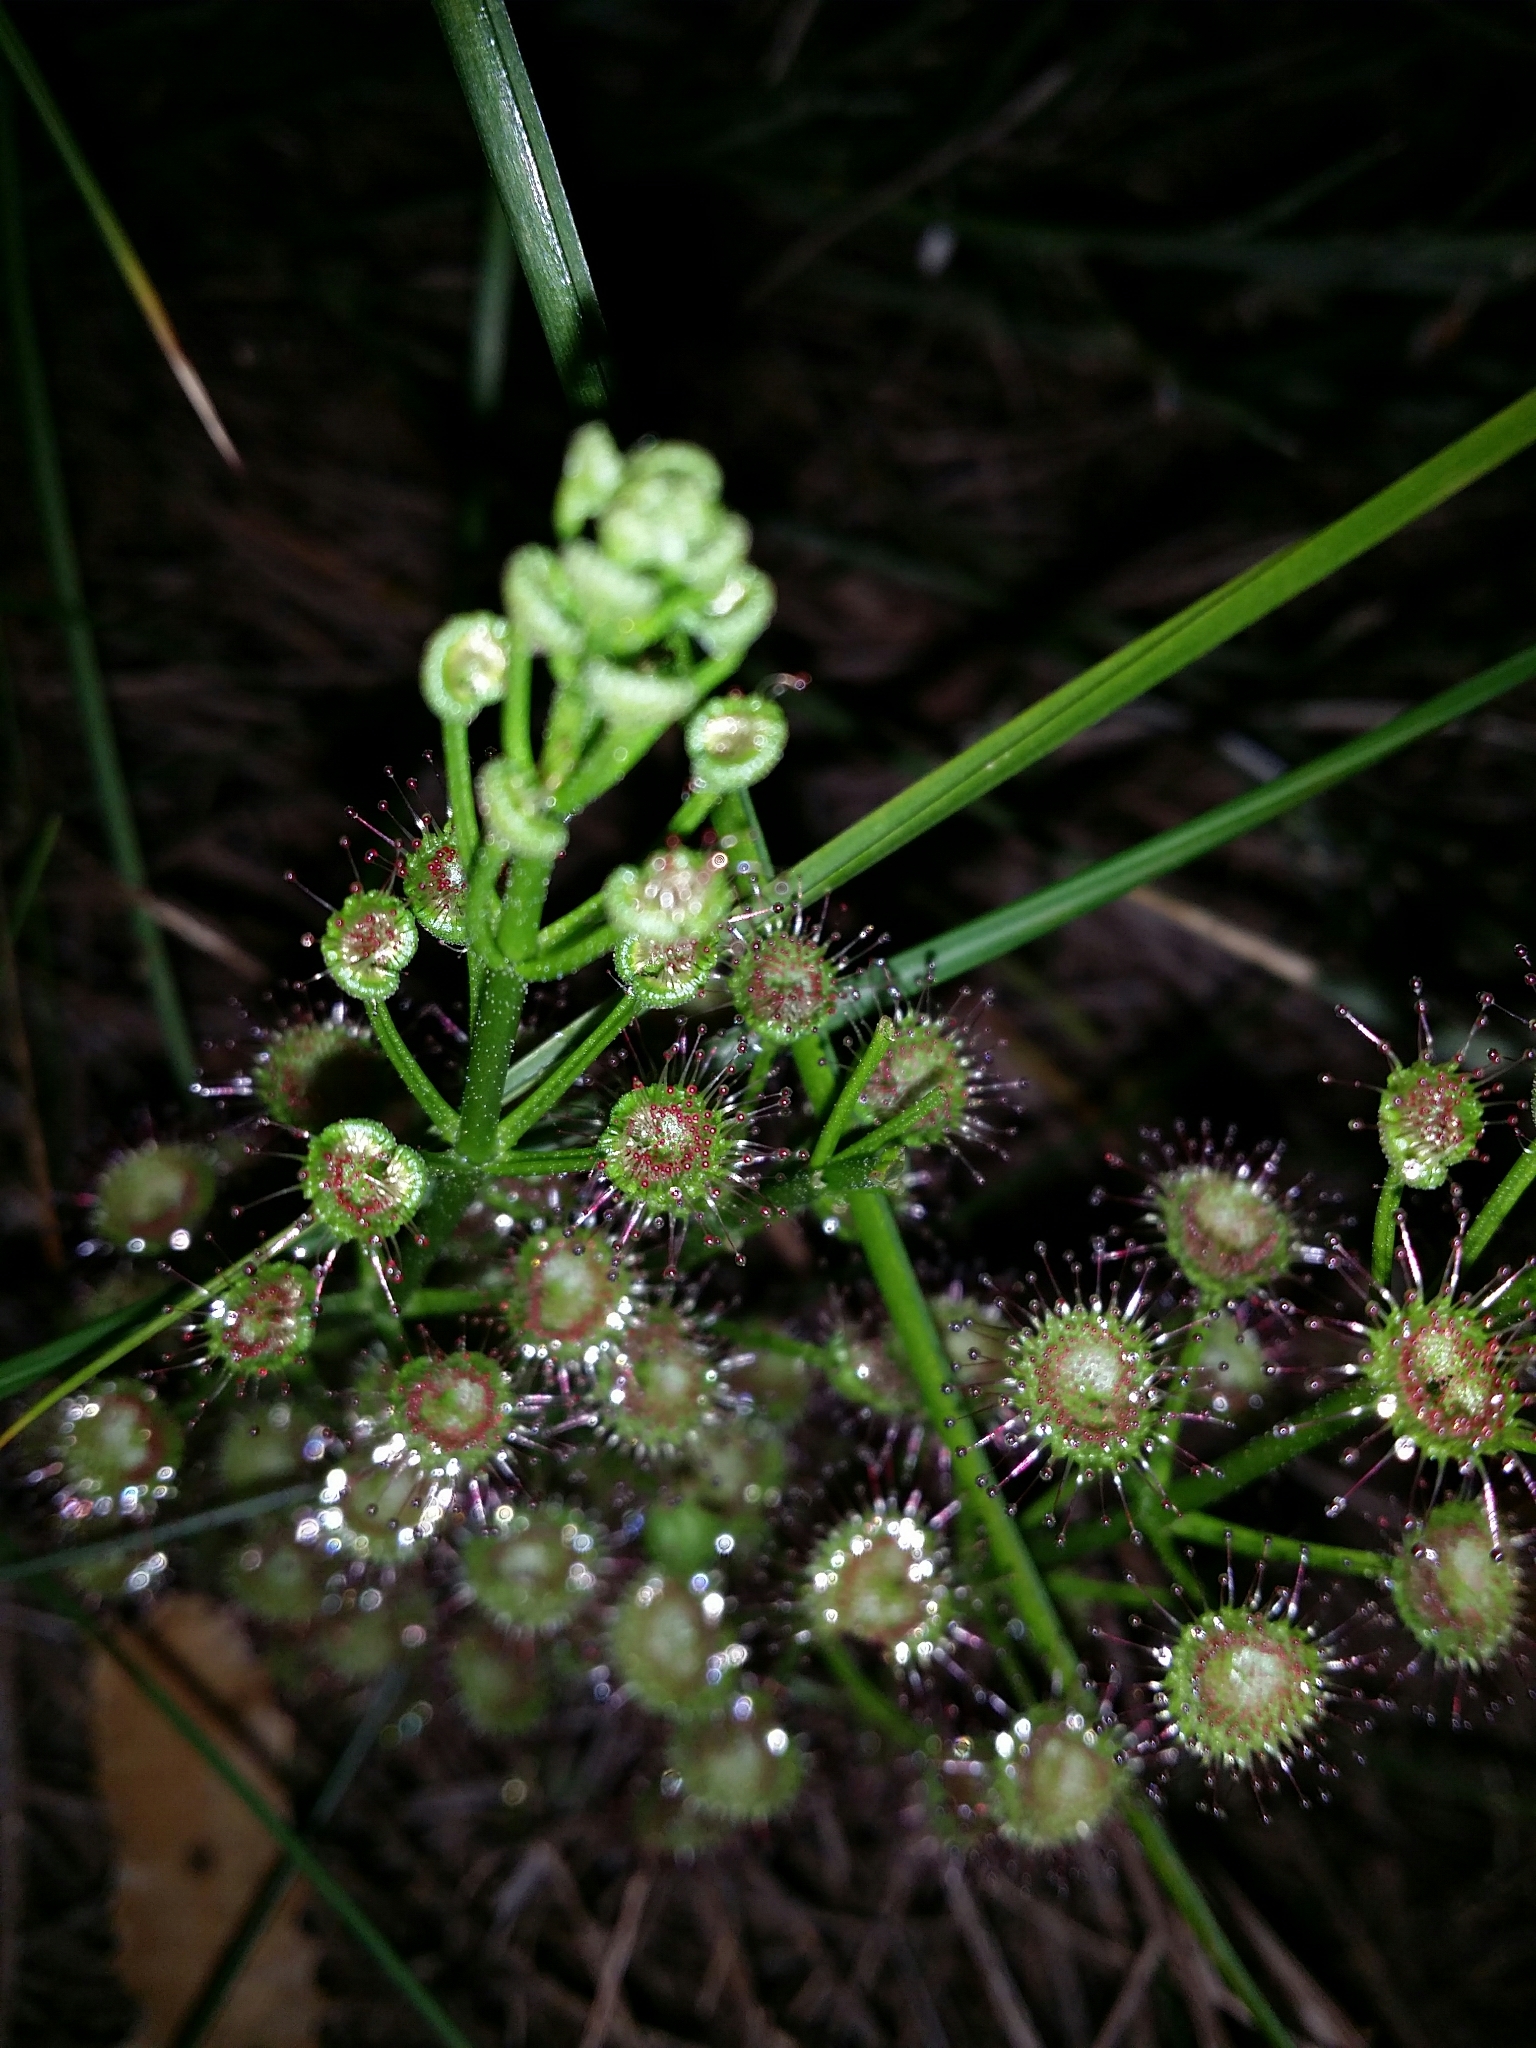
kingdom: Plantae
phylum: Tracheophyta
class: Magnoliopsida
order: Caryophyllales
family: Droseraceae
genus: Drosera
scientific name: Drosera stolonifera
